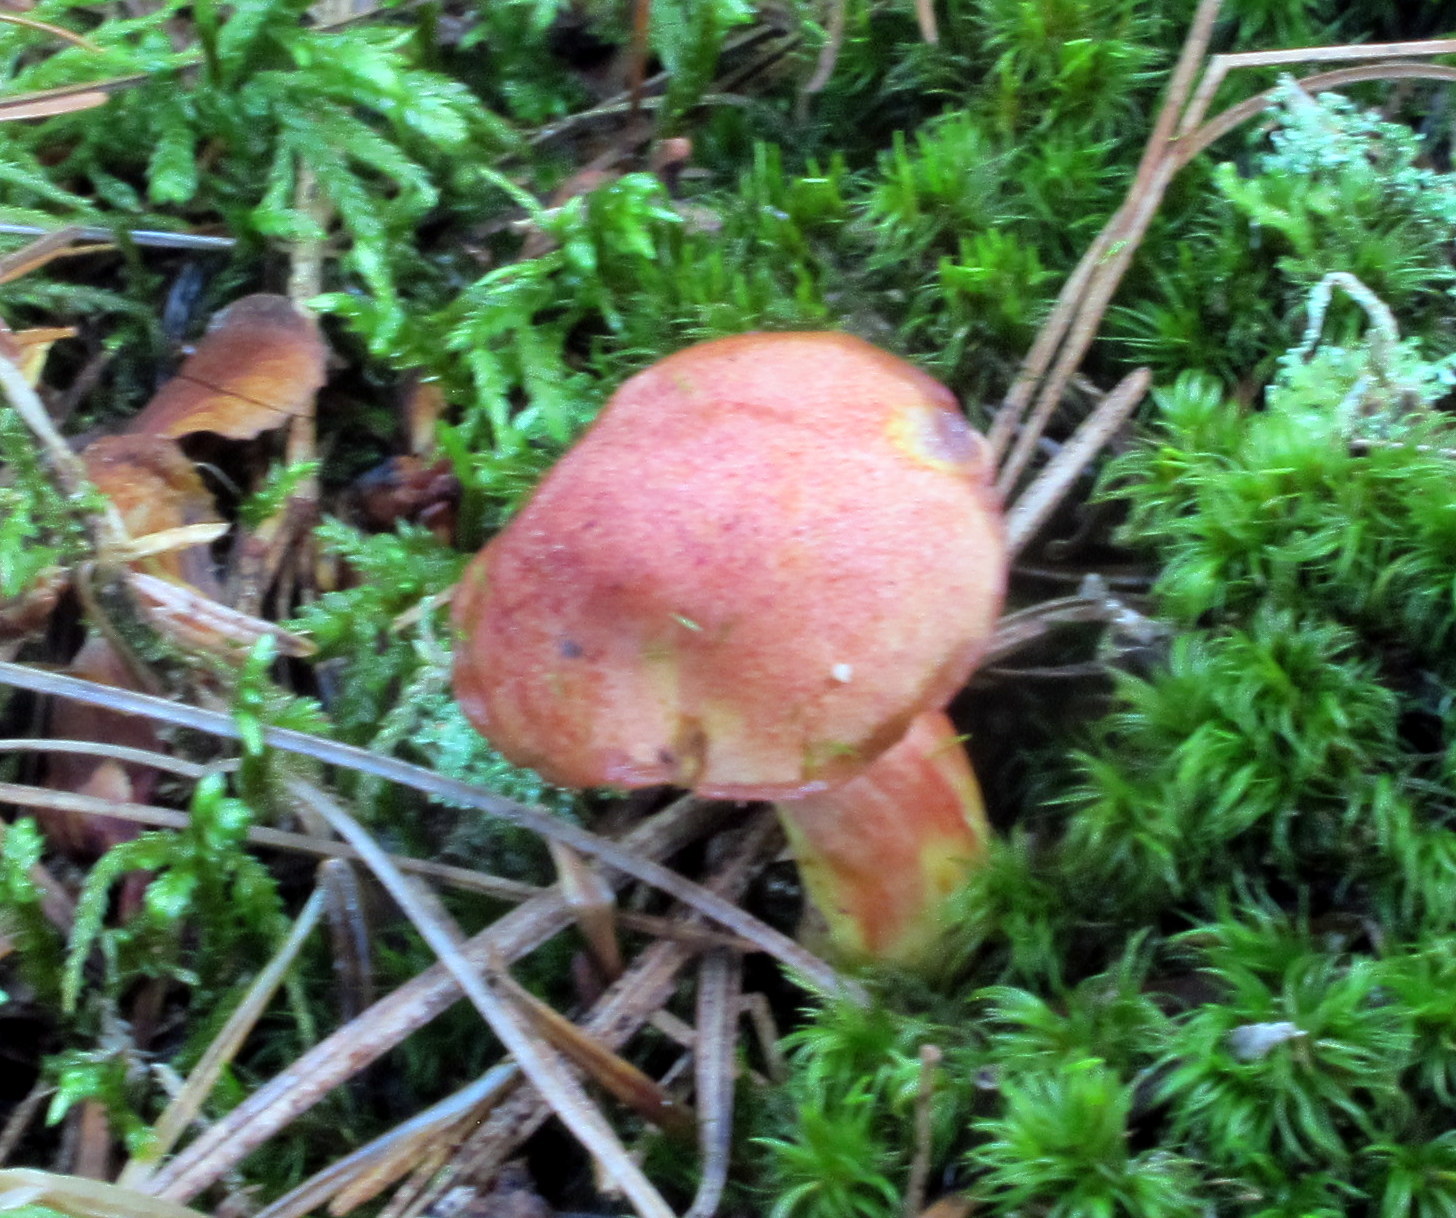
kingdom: Fungi
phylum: Basidiomycota
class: Agaricomycetes
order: Boletales
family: Boletaceae
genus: Chalciporus
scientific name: Chalciporus rubinellus
